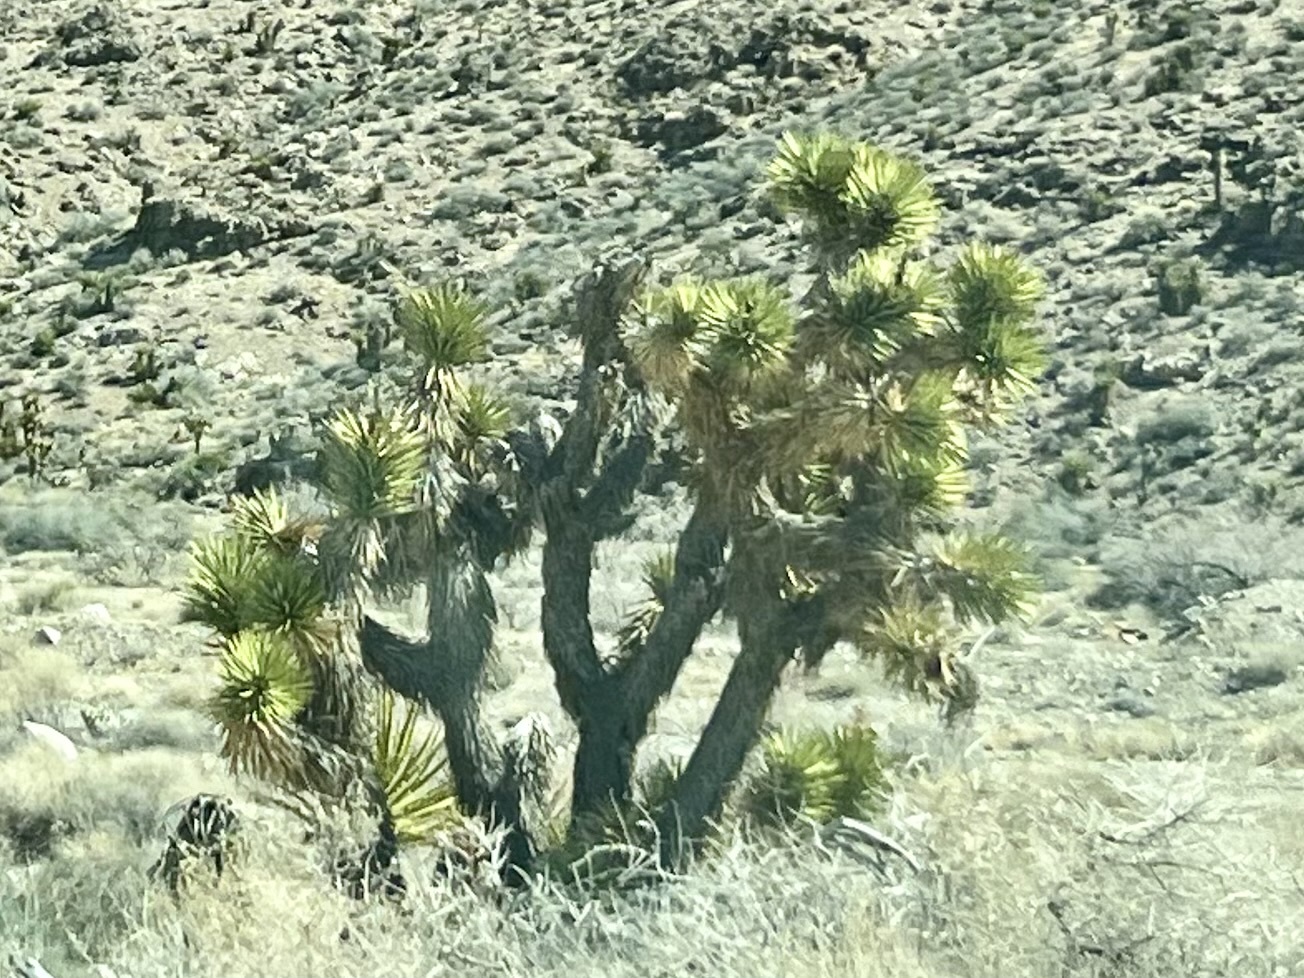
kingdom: Plantae
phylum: Tracheophyta
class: Liliopsida
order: Asparagales
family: Asparagaceae
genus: Yucca
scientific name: Yucca brevifolia
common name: Joshua tree
